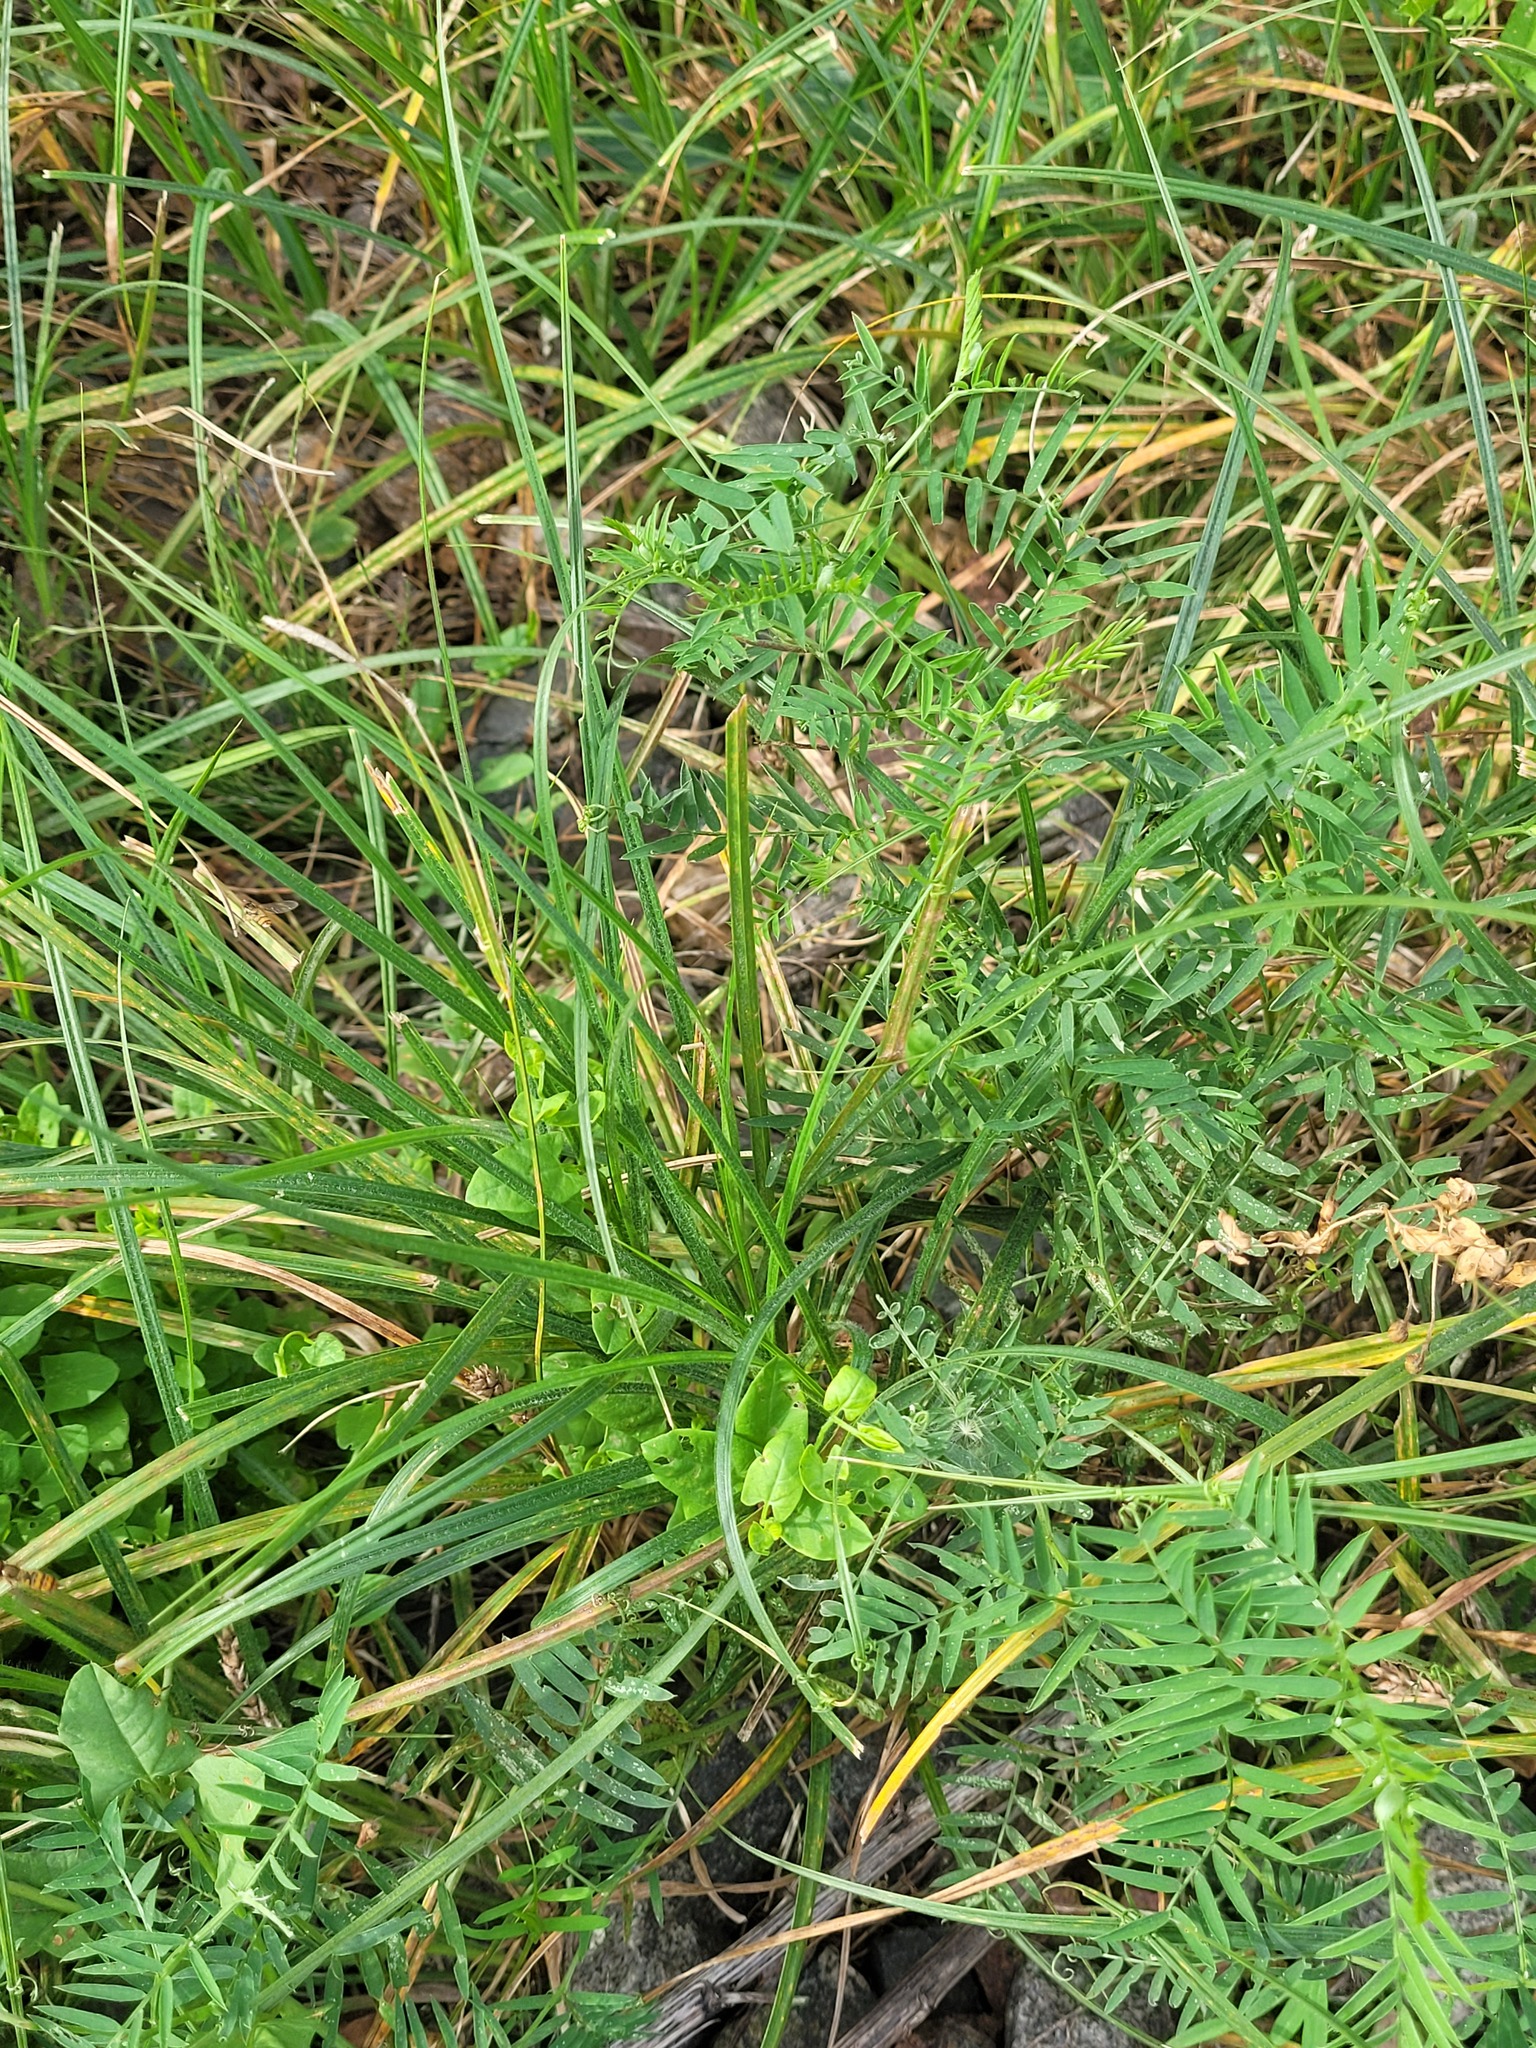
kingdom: Plantae
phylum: Tracheophyta
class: Liliopsida
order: Poales
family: Cyperaceae
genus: Carex
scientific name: Carex hirta
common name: Hairy sedge
